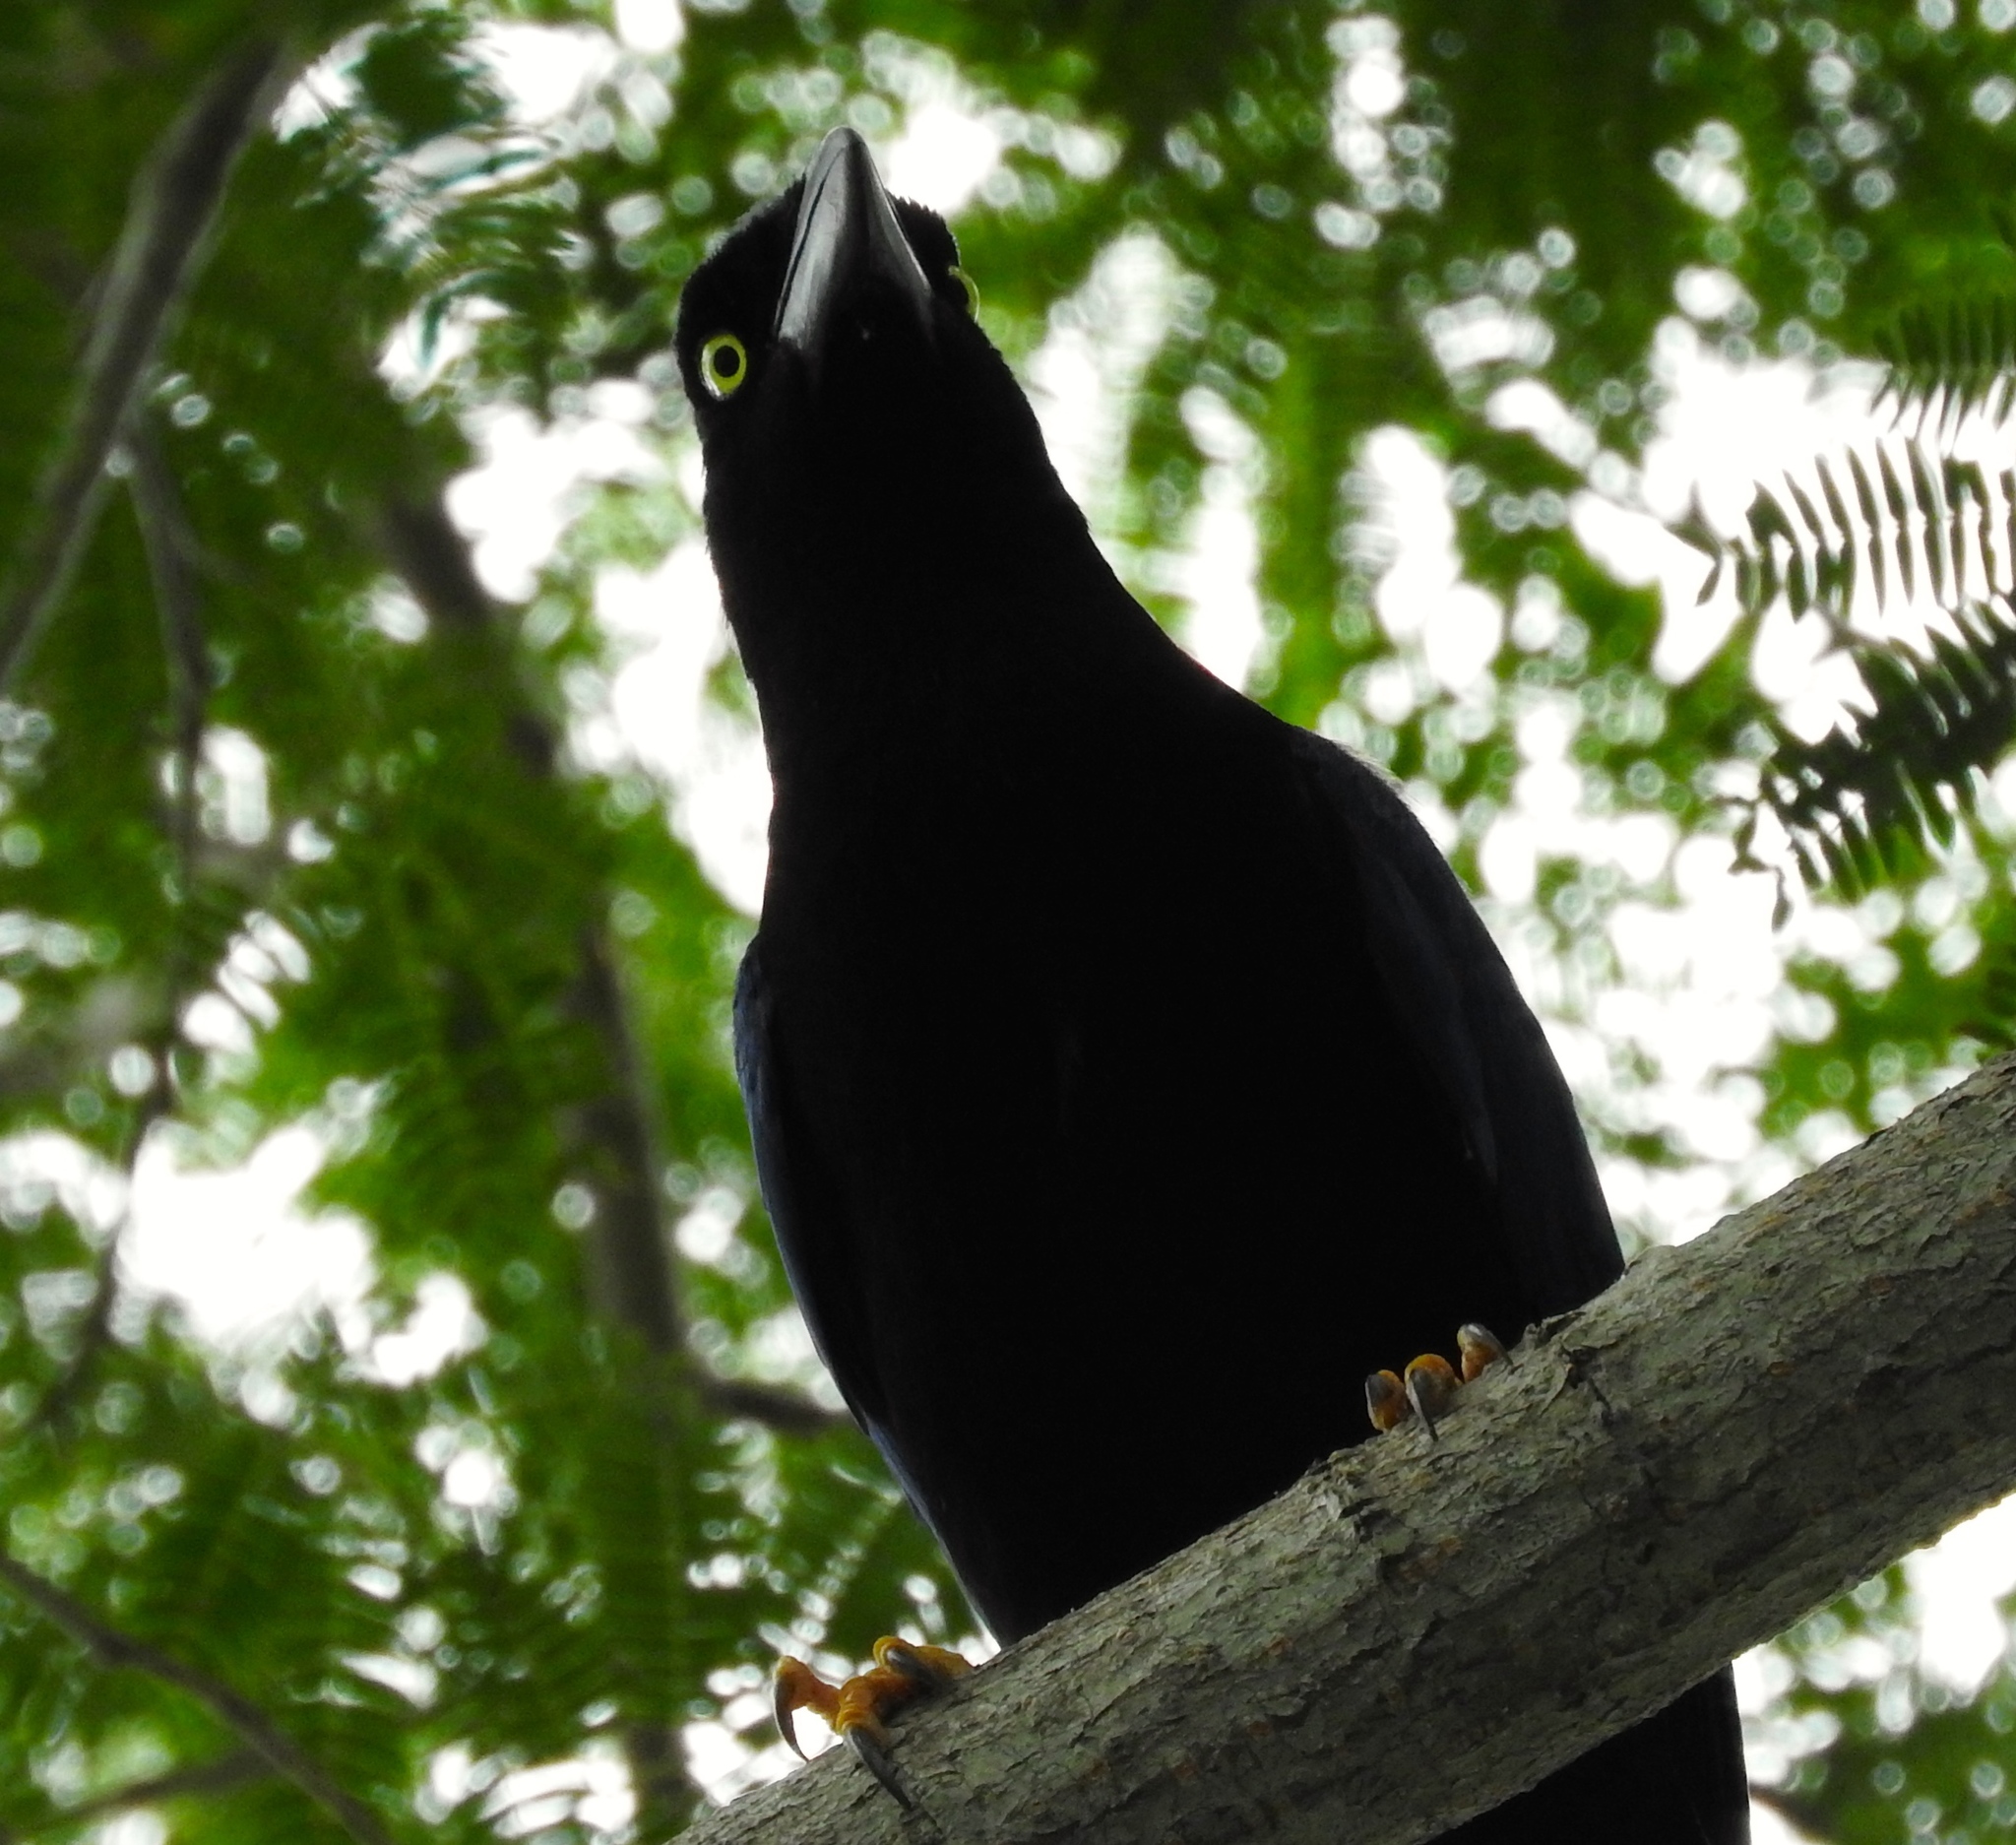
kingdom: Animalia
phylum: Chordata
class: Aves
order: Passeriformes
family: Corvidae
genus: Cyanocorax
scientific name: Cyanocorax beecheii
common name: Purplish-backed jay
